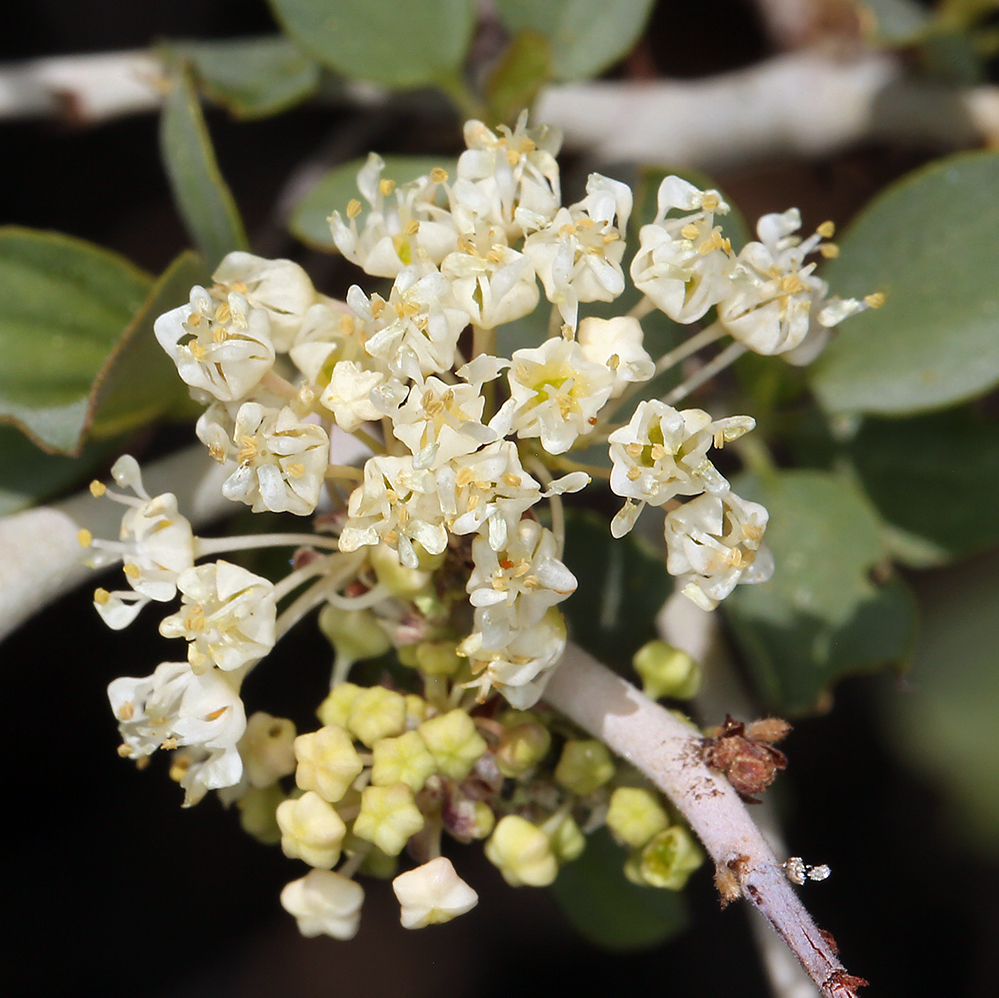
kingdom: Plantae
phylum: Tracheophyta
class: Magnoliopsida
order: Rosales
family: Rhamnaceae
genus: Ceanothus
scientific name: Ceanothus cordulatus
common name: Mountain whitethorn
